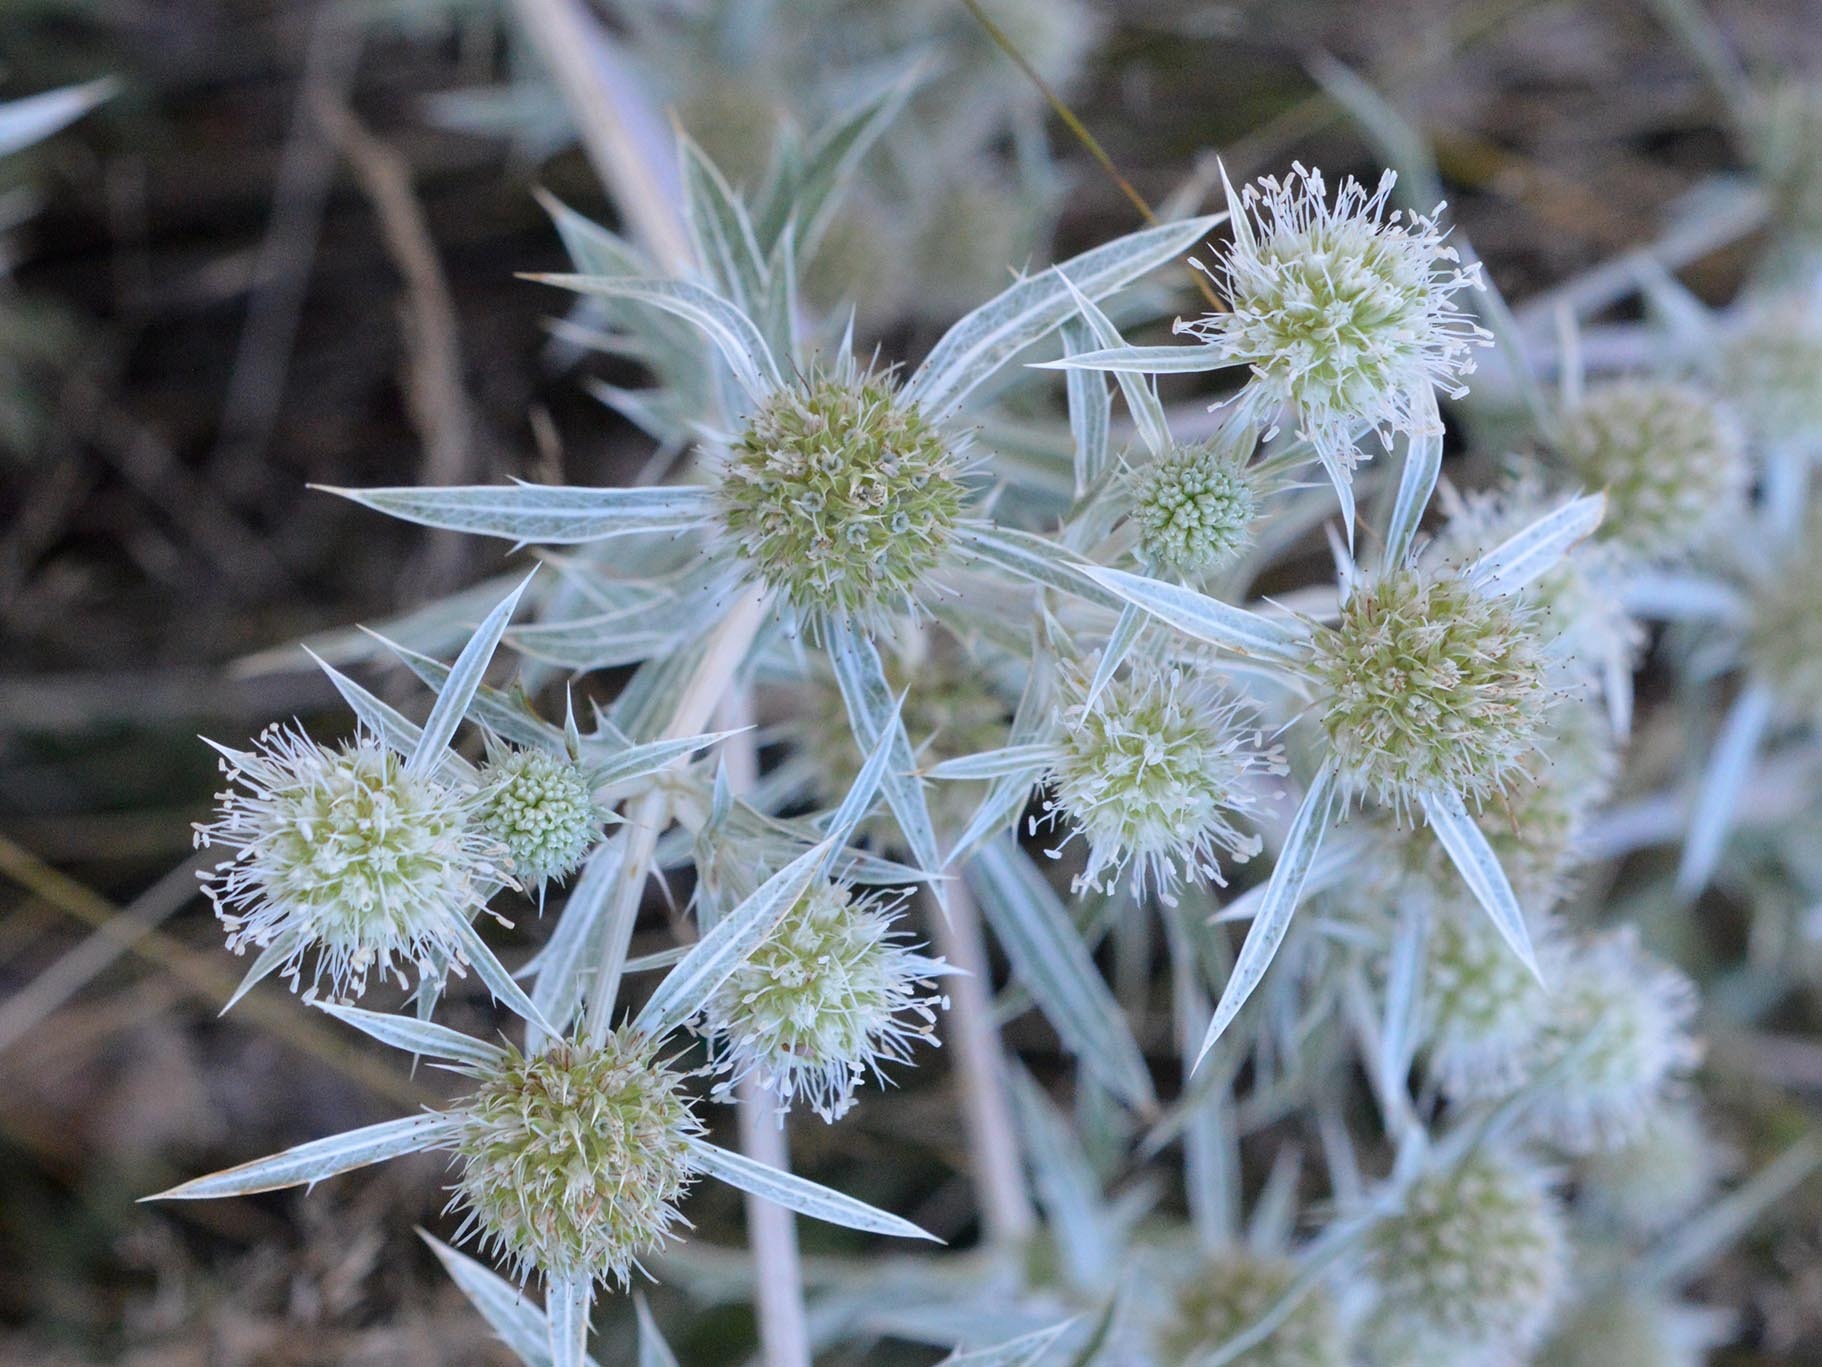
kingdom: Plantae
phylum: Tracheophyta
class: Magnoliopsida
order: Apiales
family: Apiaceae
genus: Eryngium
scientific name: Eryngium campestre
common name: Field eryngo
